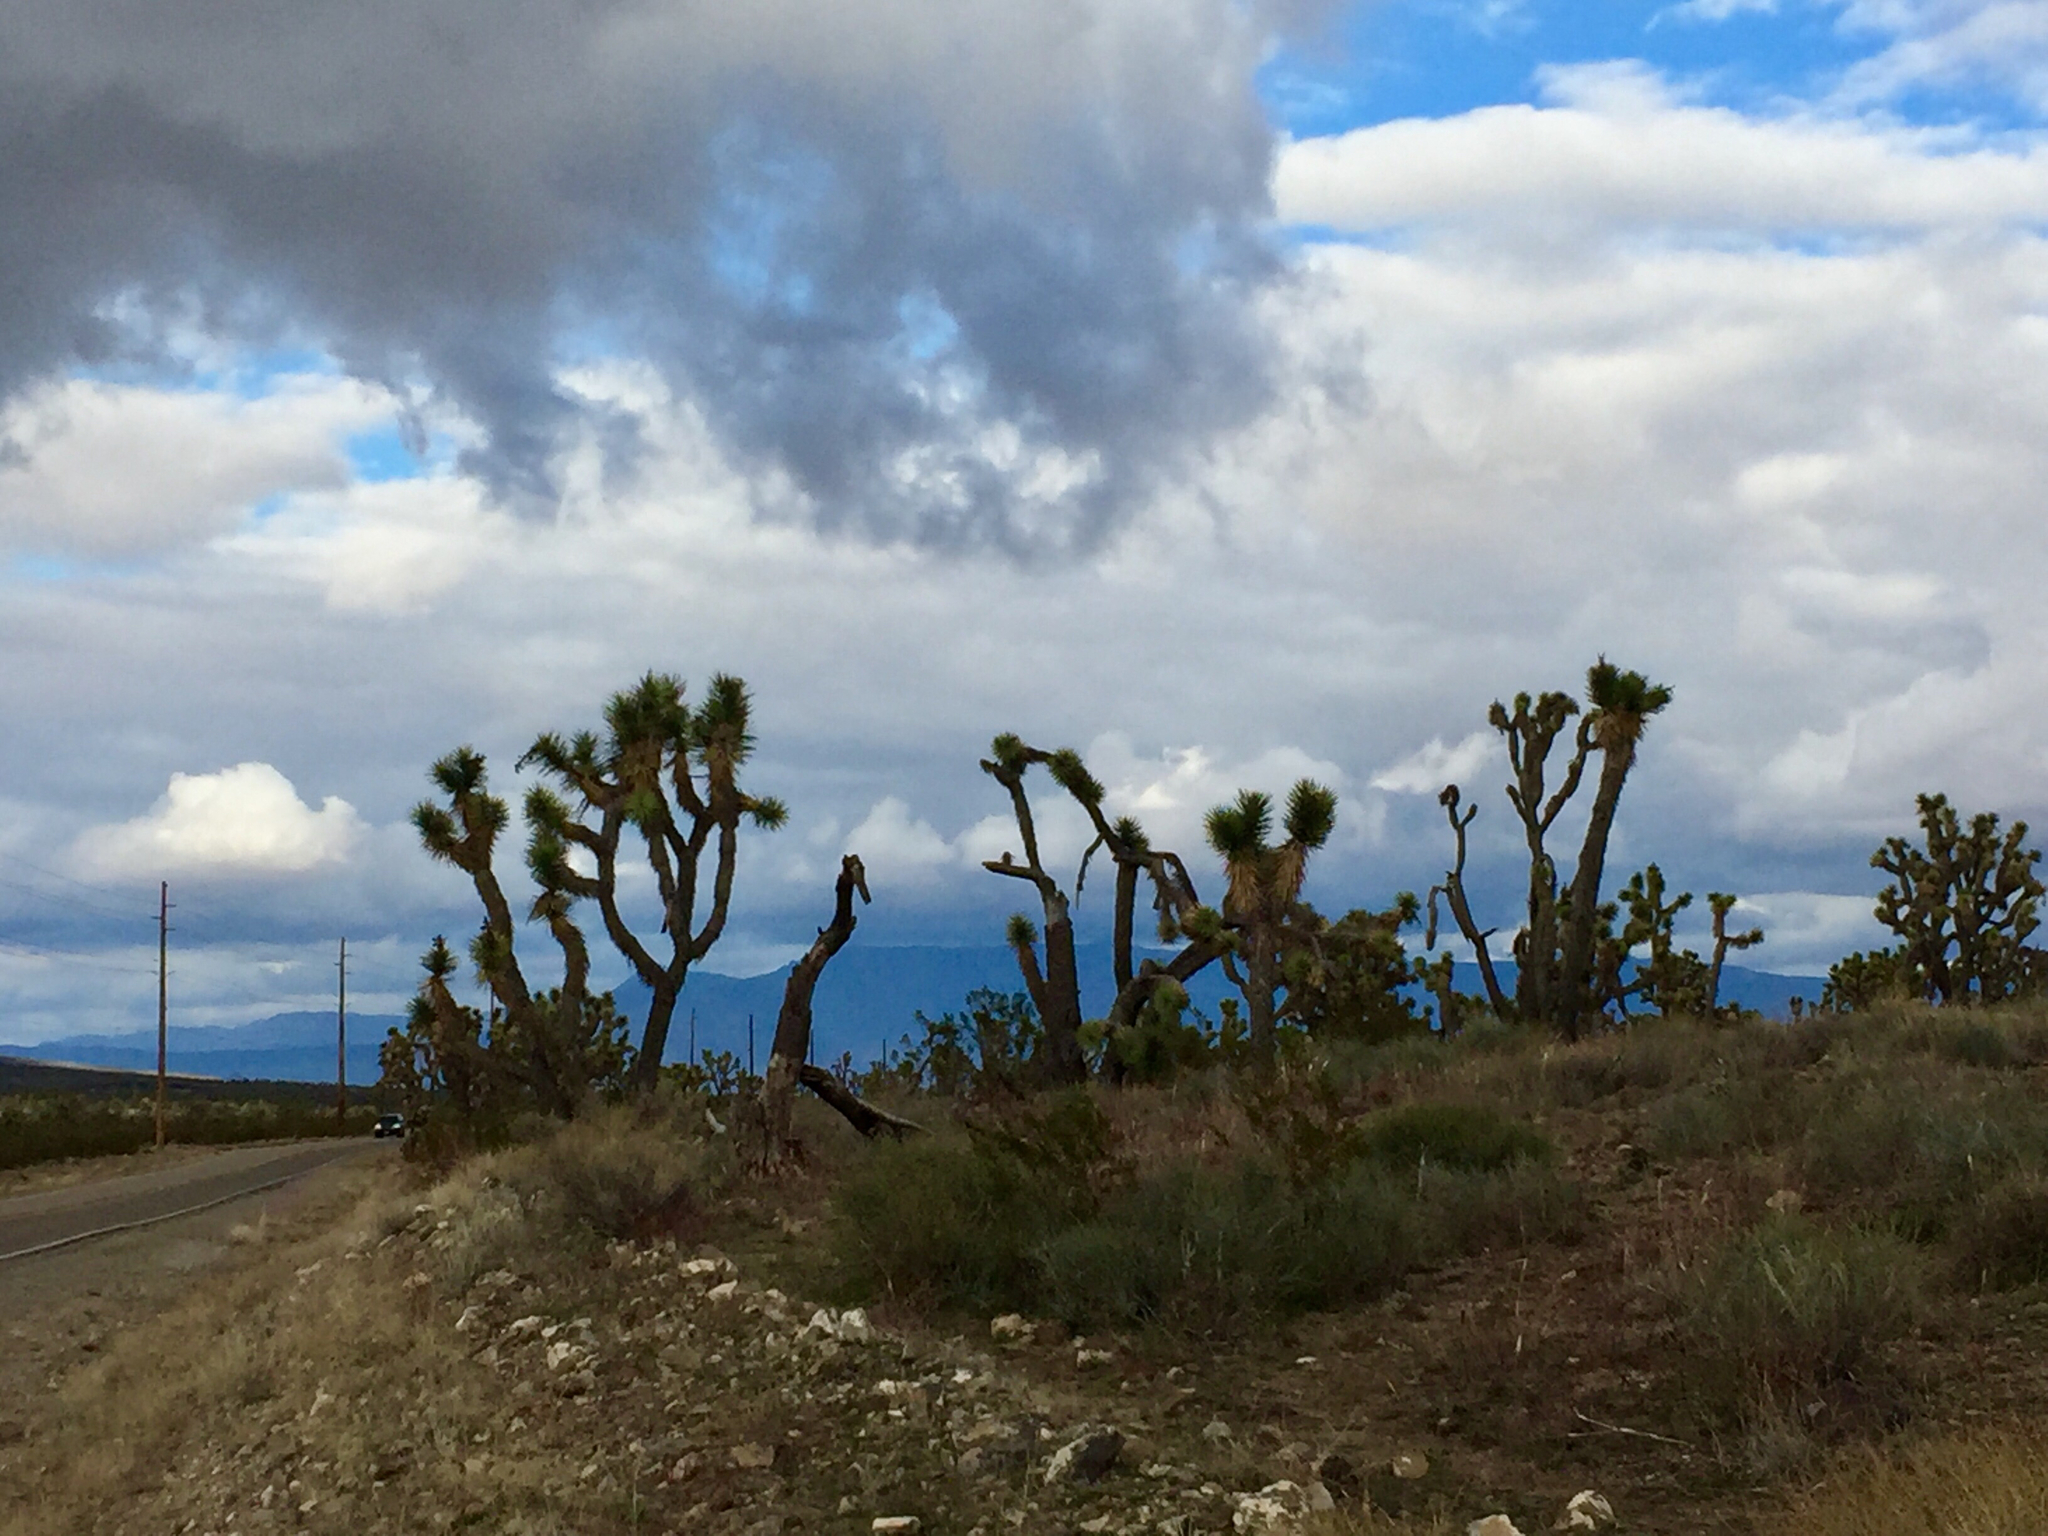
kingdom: Plantae
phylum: Tracheophyta
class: Liliopsida
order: Asparagales
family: Asparagaceae
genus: Yucca
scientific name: Yucca brevifolia
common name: Joshua tree
